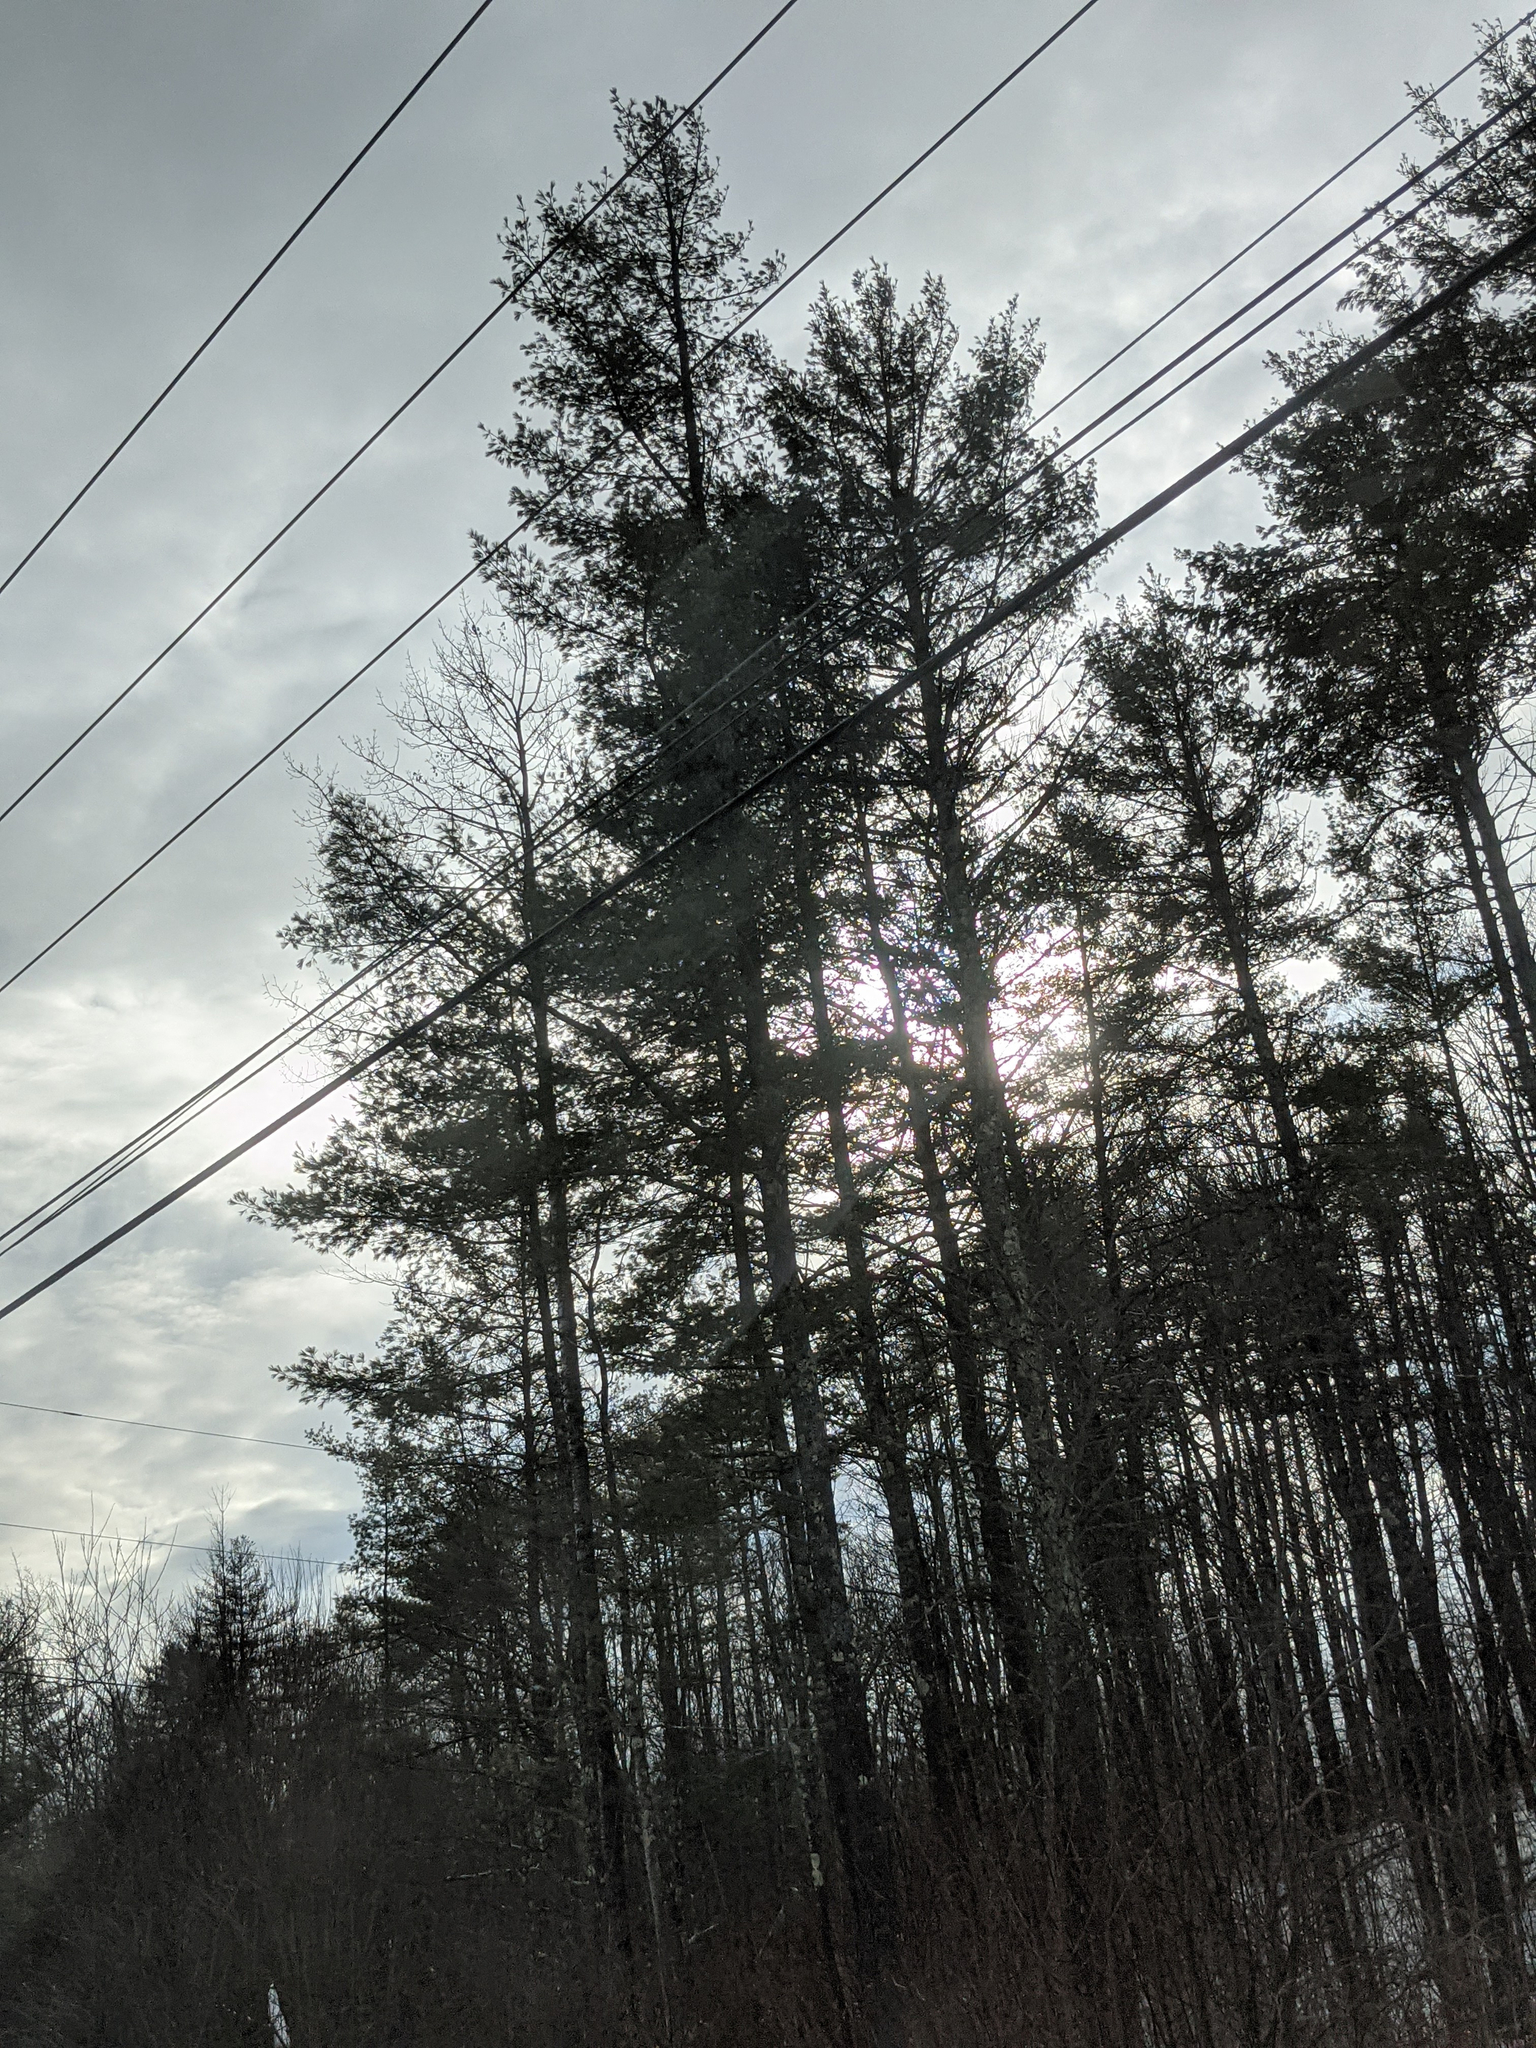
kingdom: Plantae
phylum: Tracheophyta
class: Pinopsida
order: Pinales
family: Pinaceae
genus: Pinus
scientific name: Pinus strobus
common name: Weymouth pine
